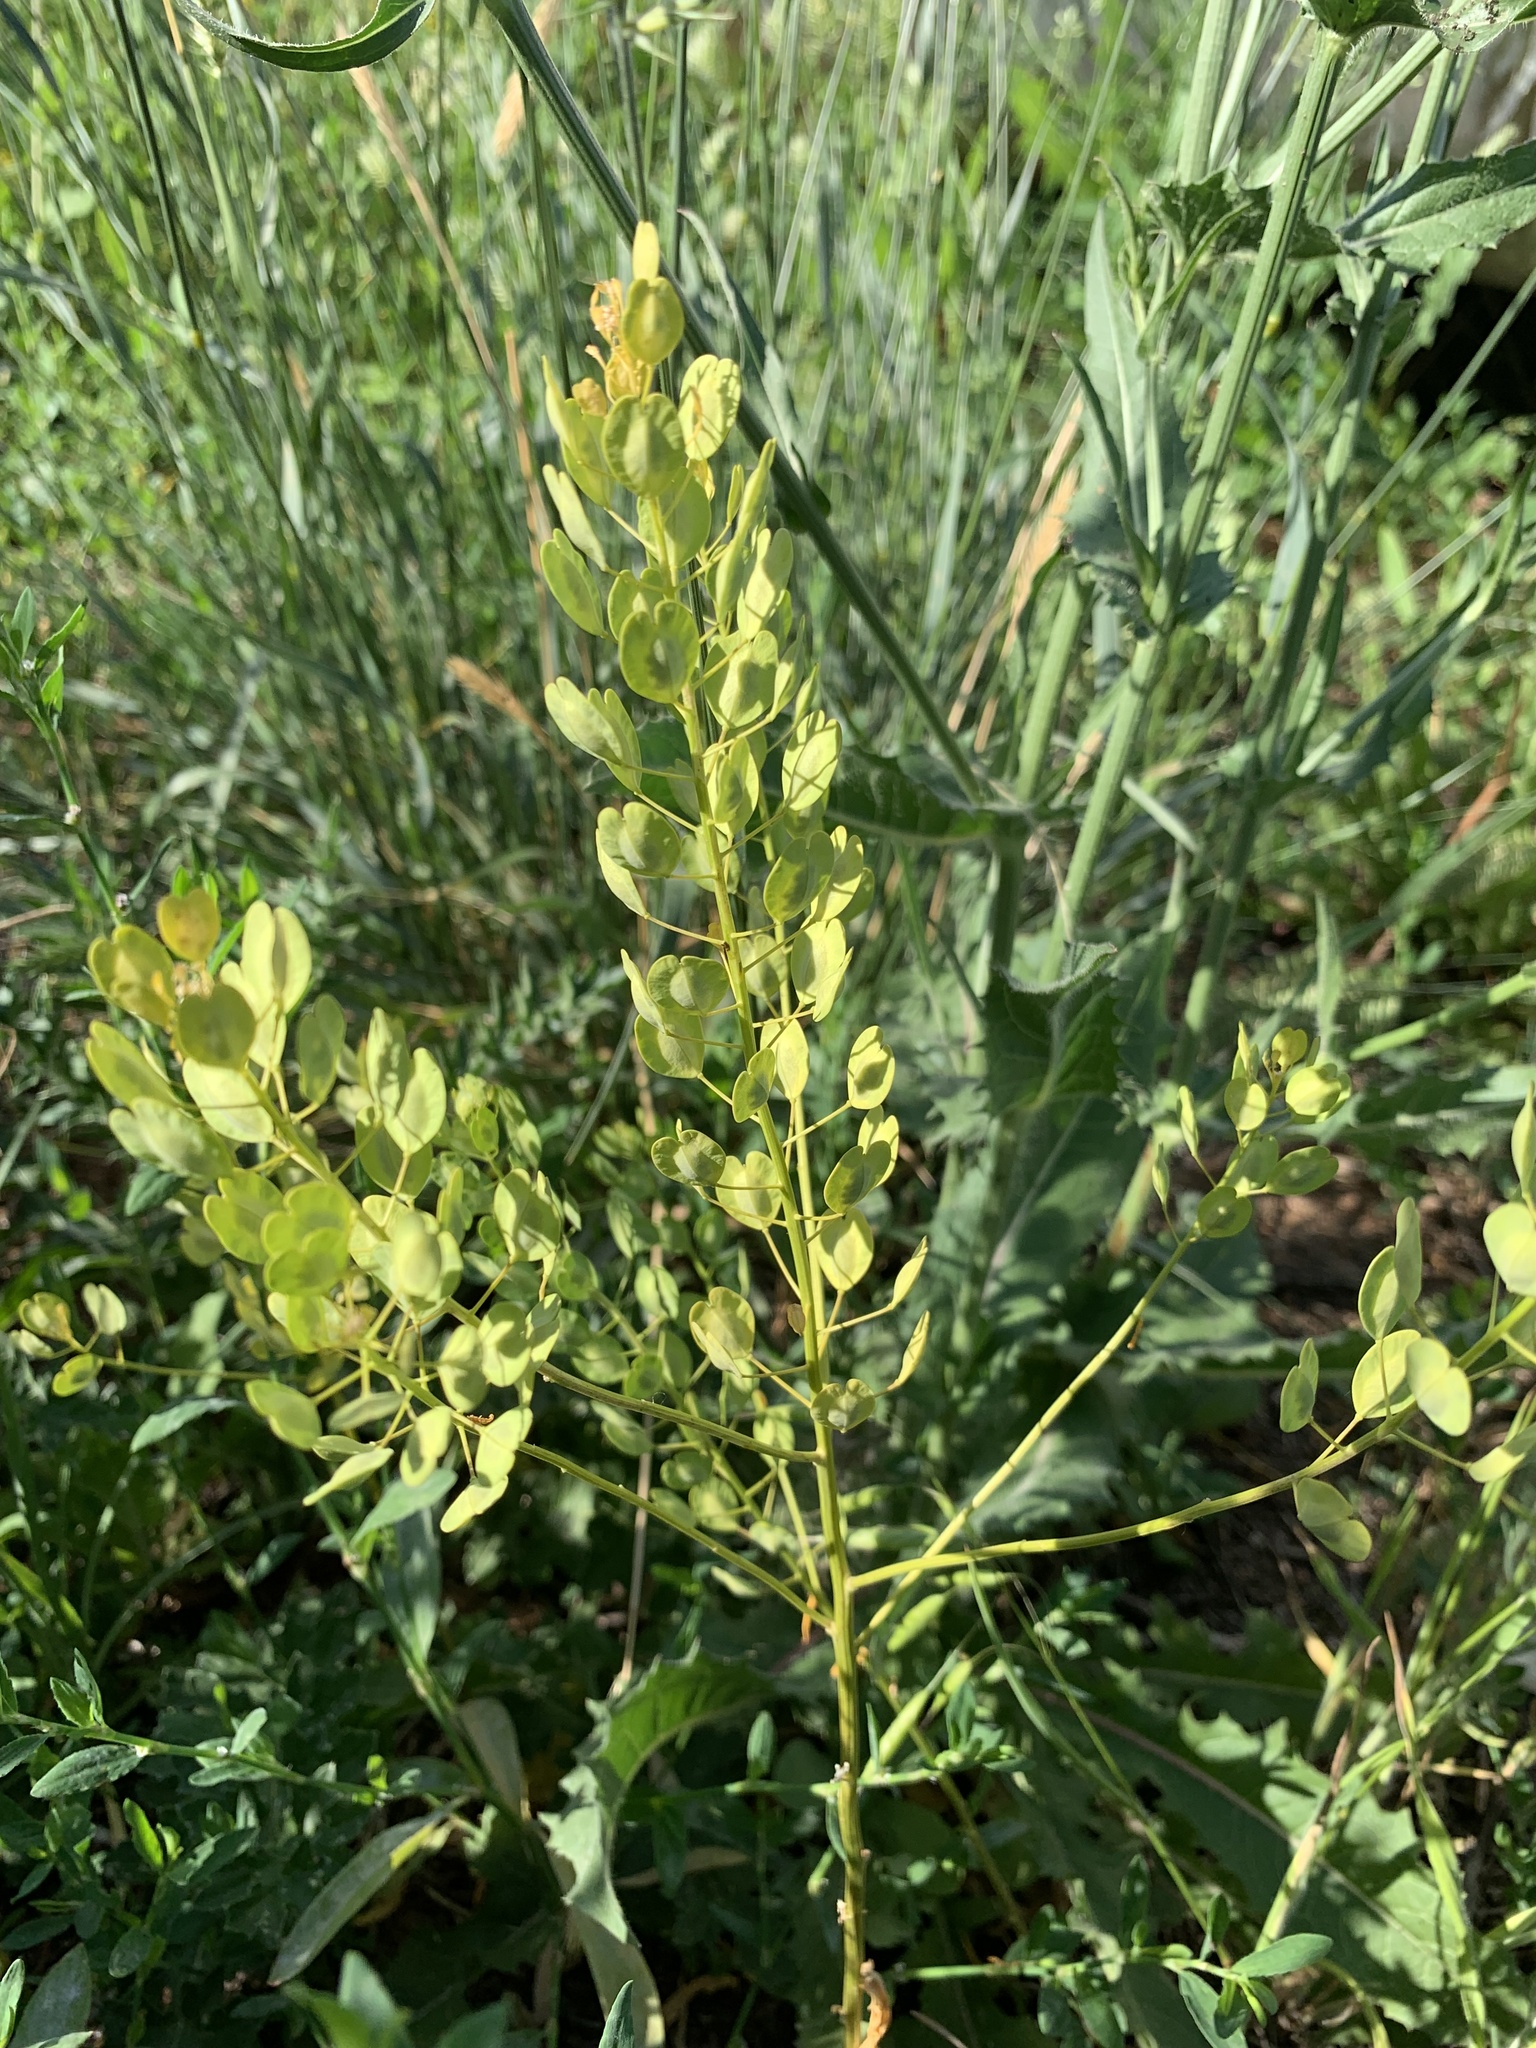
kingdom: Plantae
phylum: Tracheophyta
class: Magnoliopsida
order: Brassicales
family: Brassicaceae
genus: Thlaspi
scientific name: Thlaspi arvense
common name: Field pennycress
